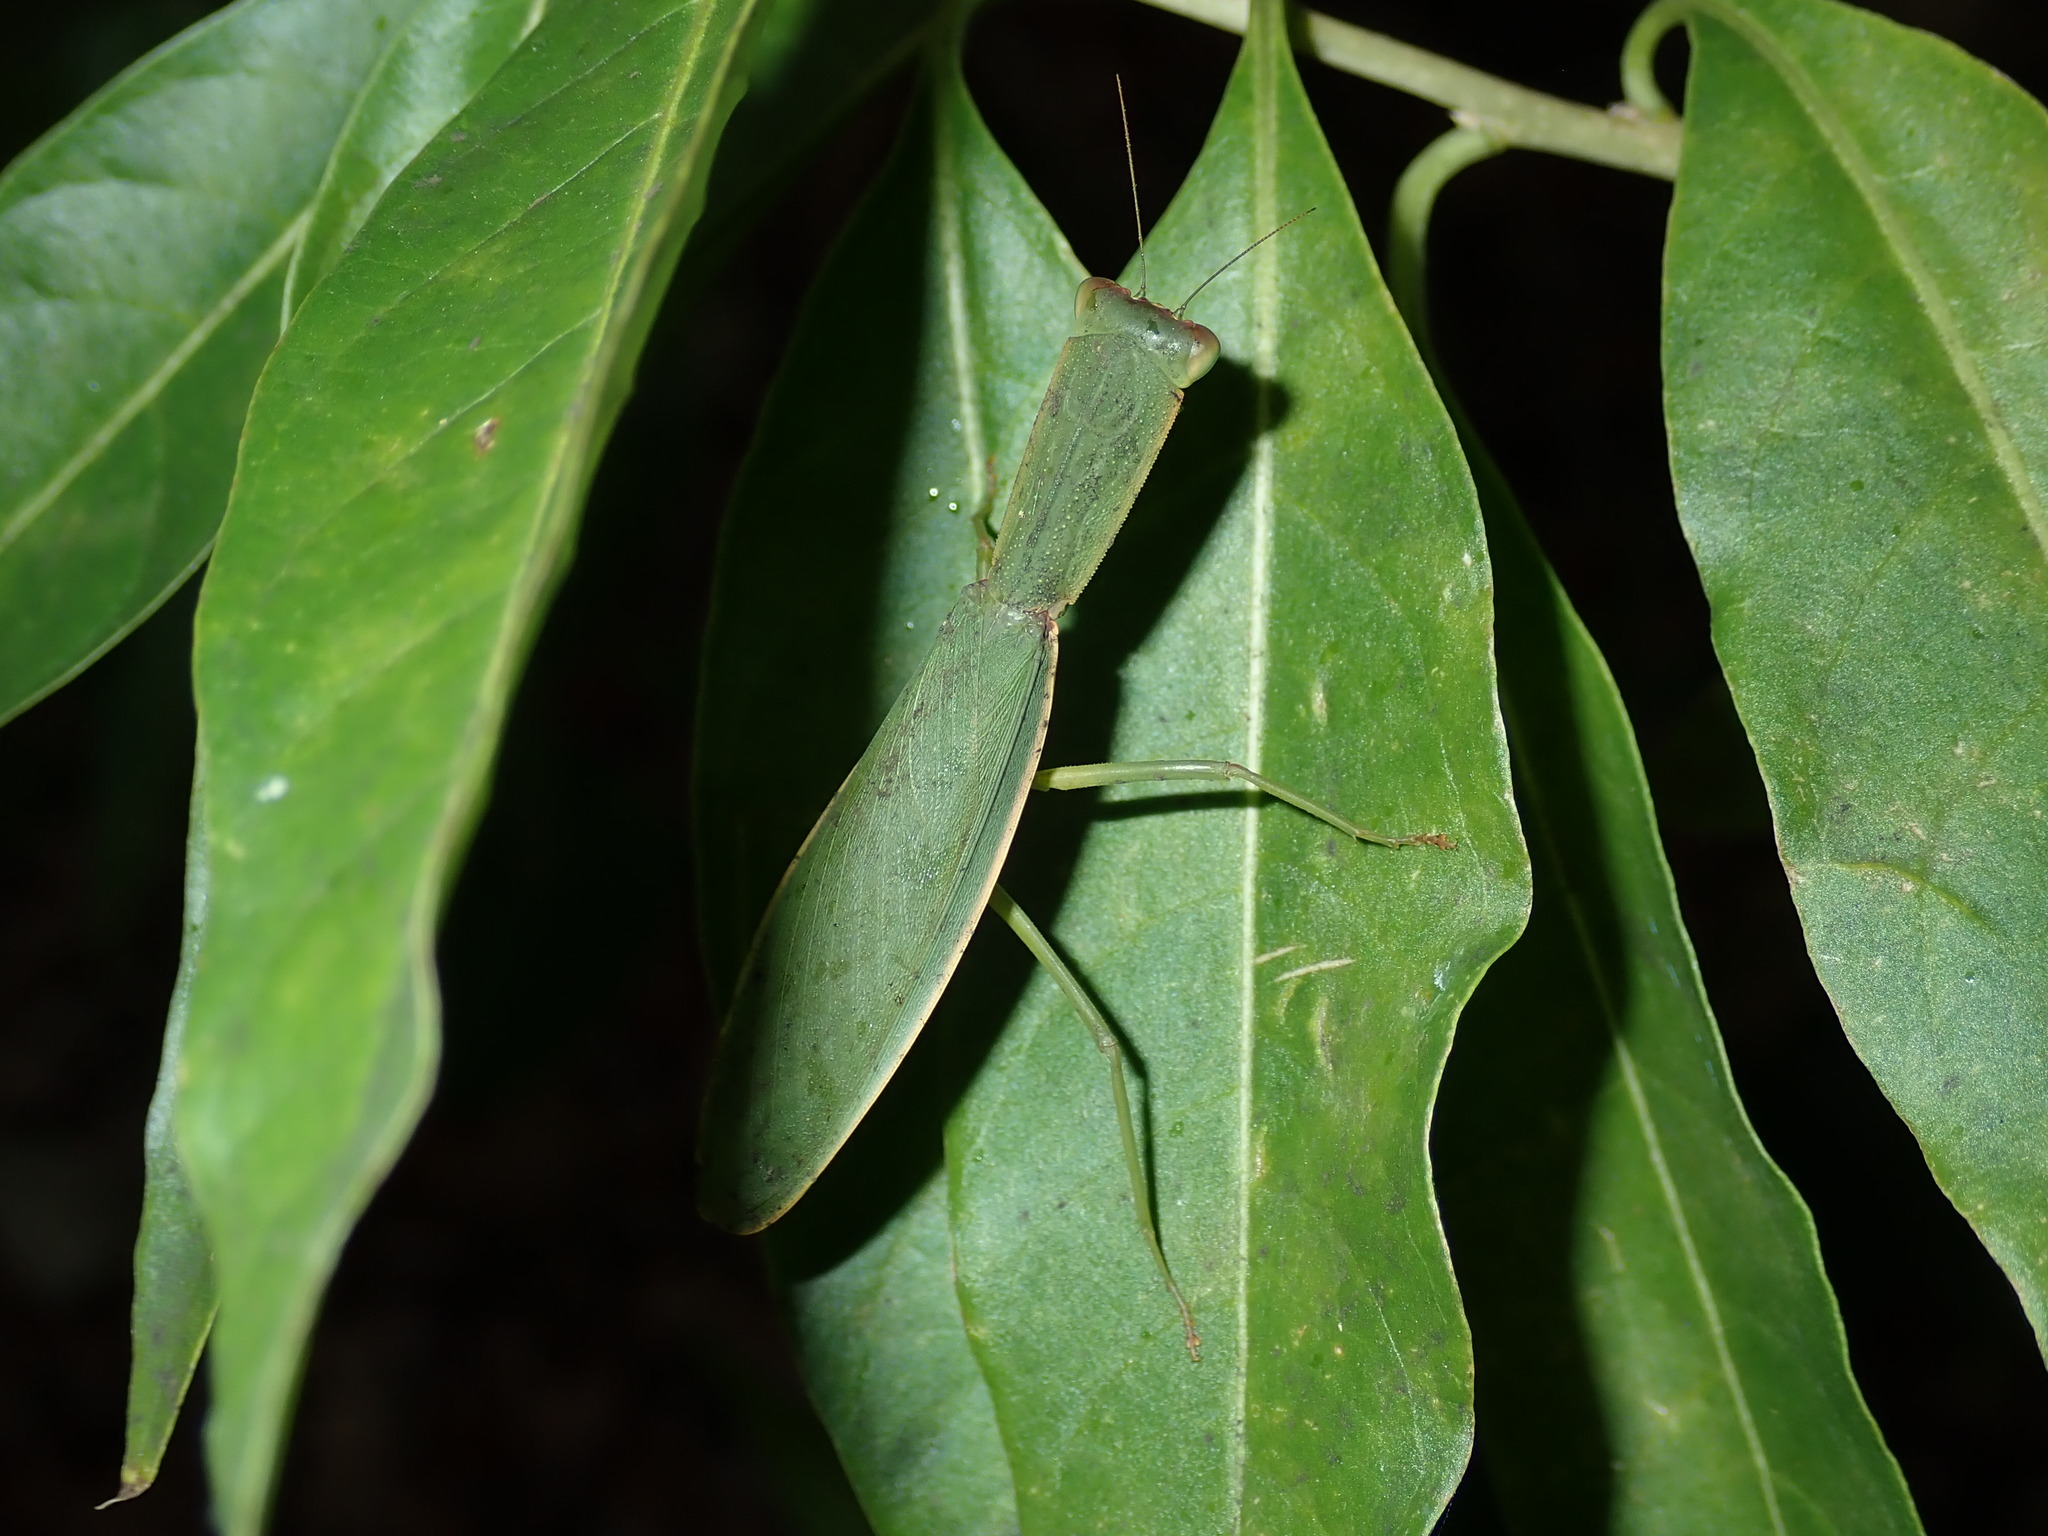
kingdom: Animalia
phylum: Arthropoda
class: Insecta
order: Mantodea
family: Mantidae
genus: Orthodera
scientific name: Orthodera ministralis
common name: Mantis
